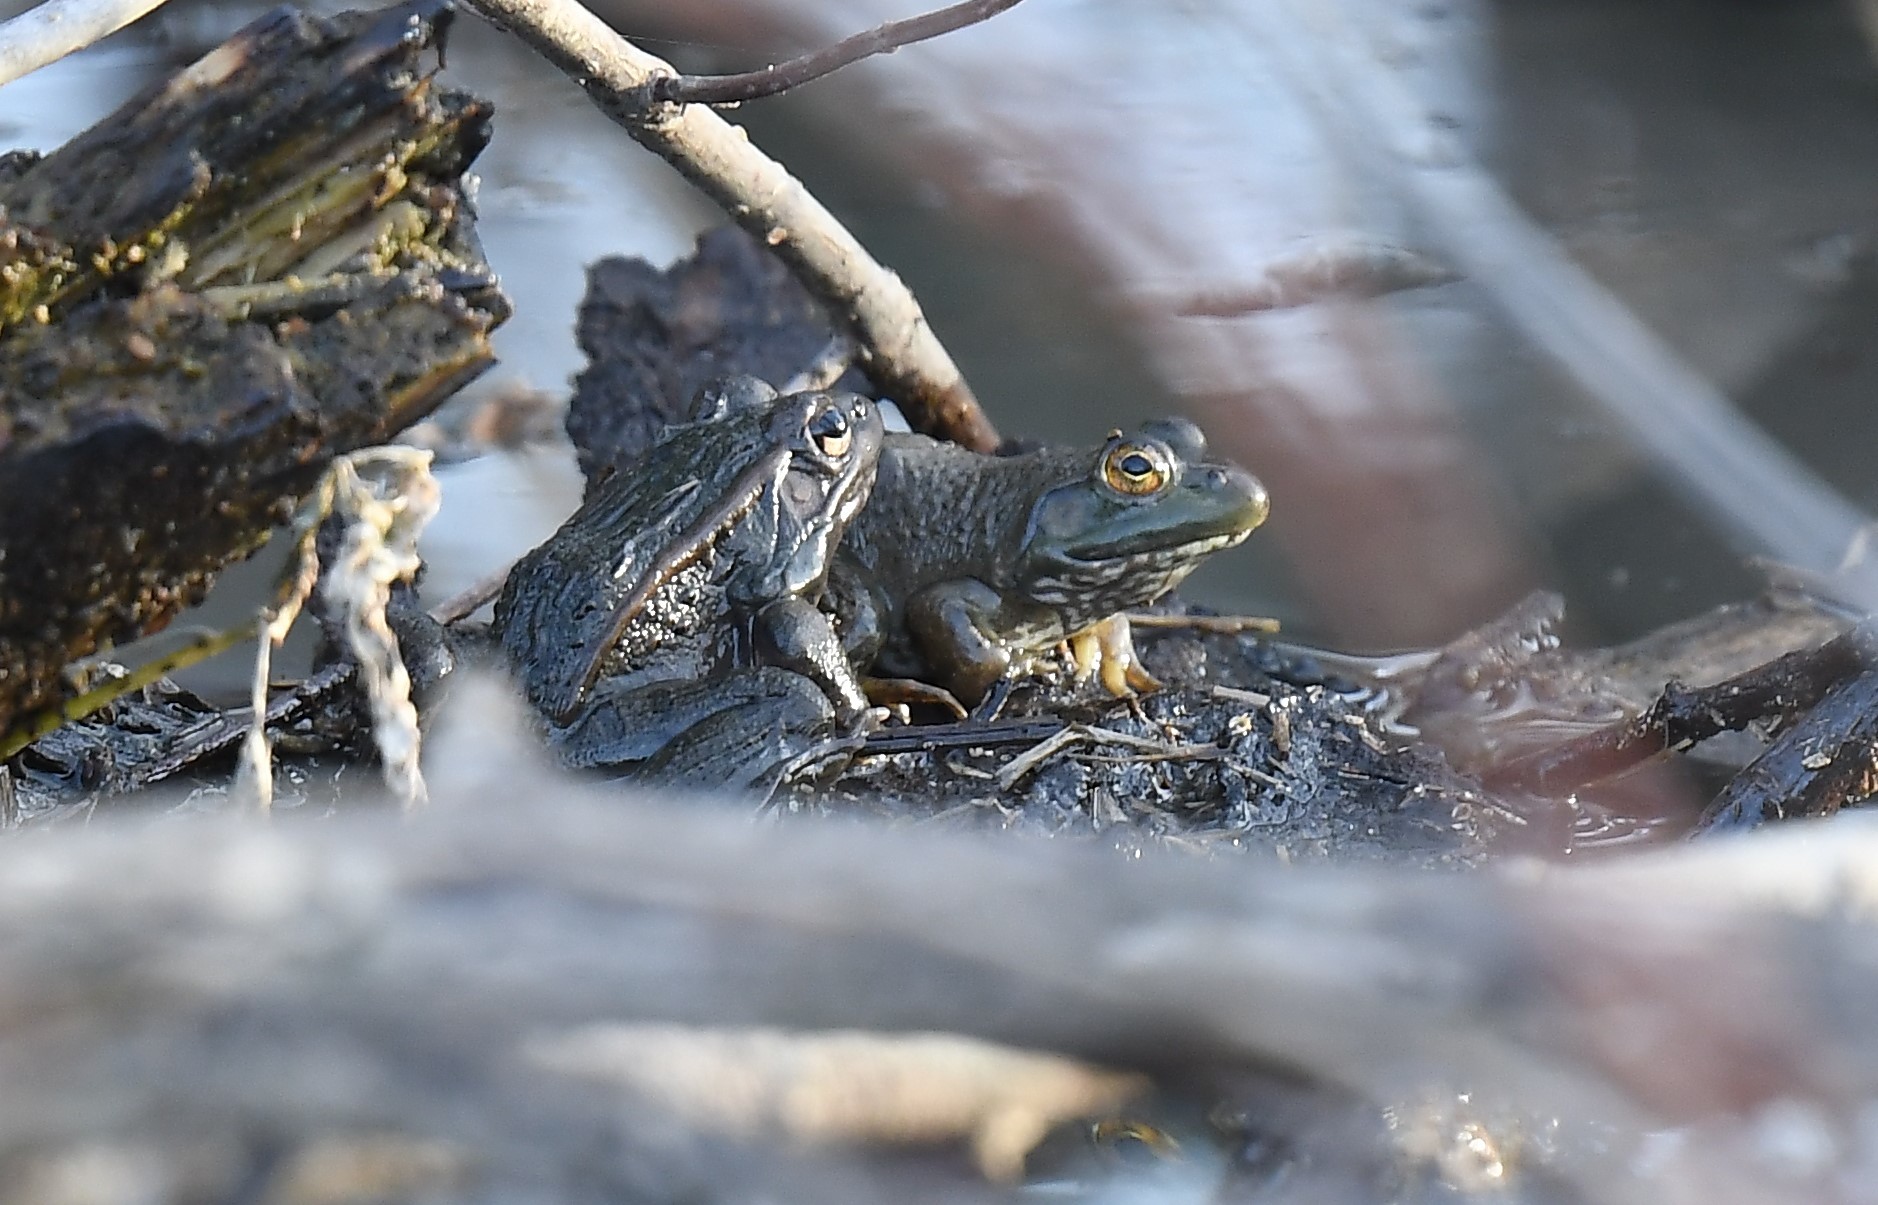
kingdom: Animalia
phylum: Chordata
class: Amphibia
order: Anura
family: Ranidae
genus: Lithobates
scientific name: Lithobates catesbeianus
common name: American bullfrog
